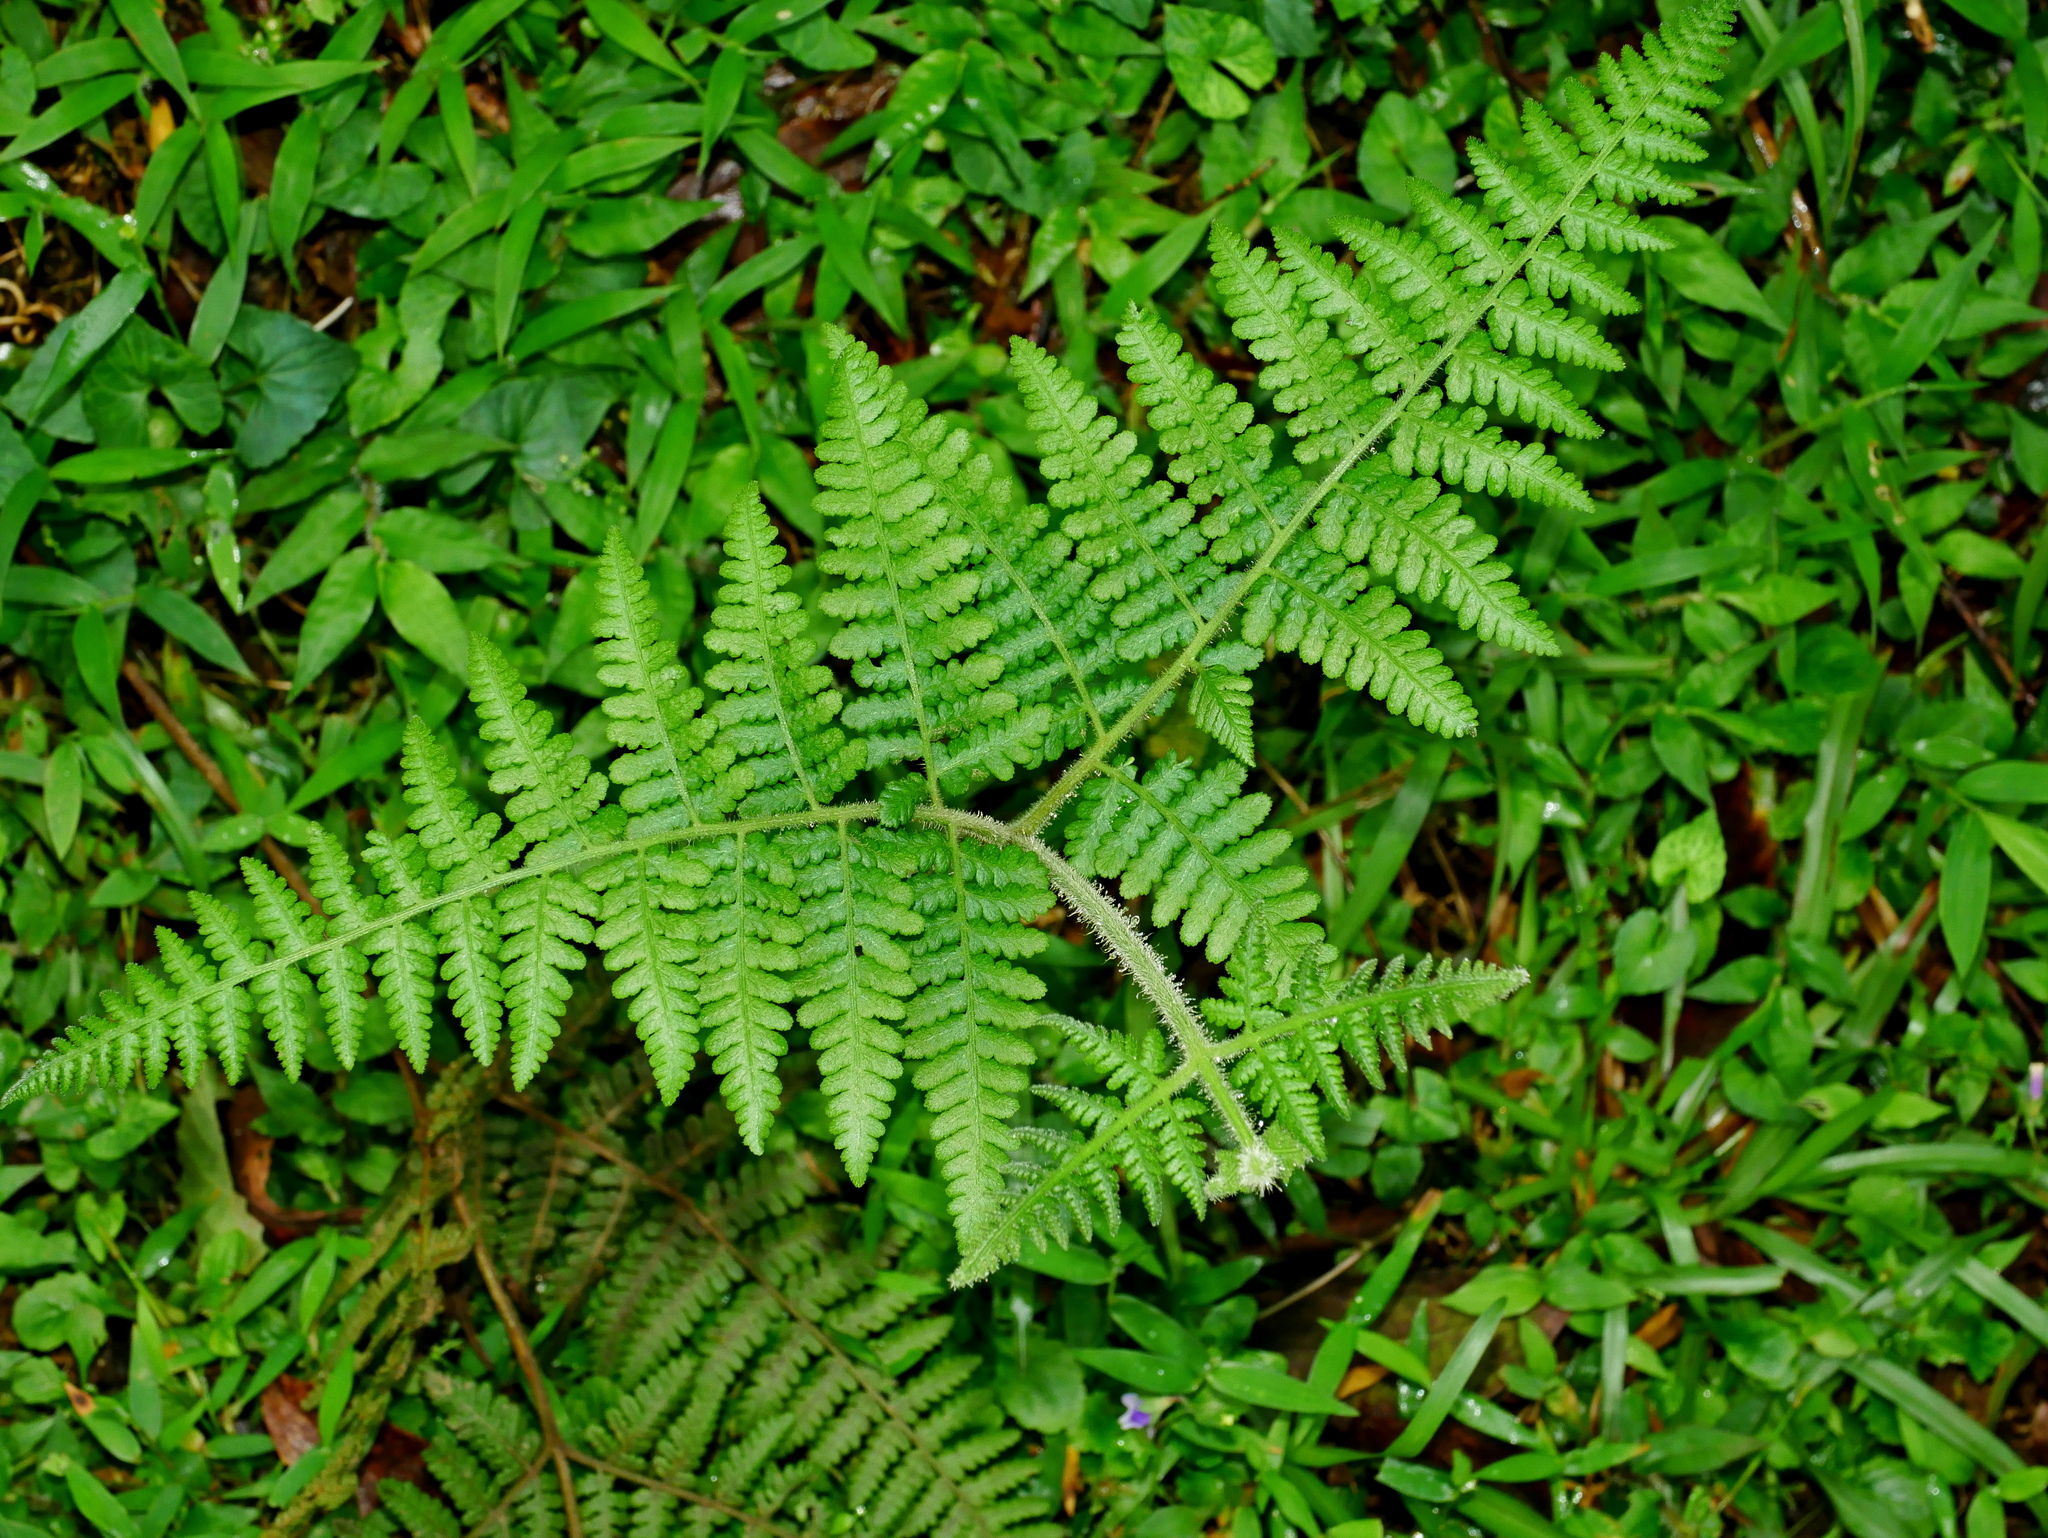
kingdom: Plantae
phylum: Tracheophyta
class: Polypodiopsida
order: Polypodiales
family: Dennstaedtiaceae
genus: Hypolepis
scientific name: Hypolepis punctata
